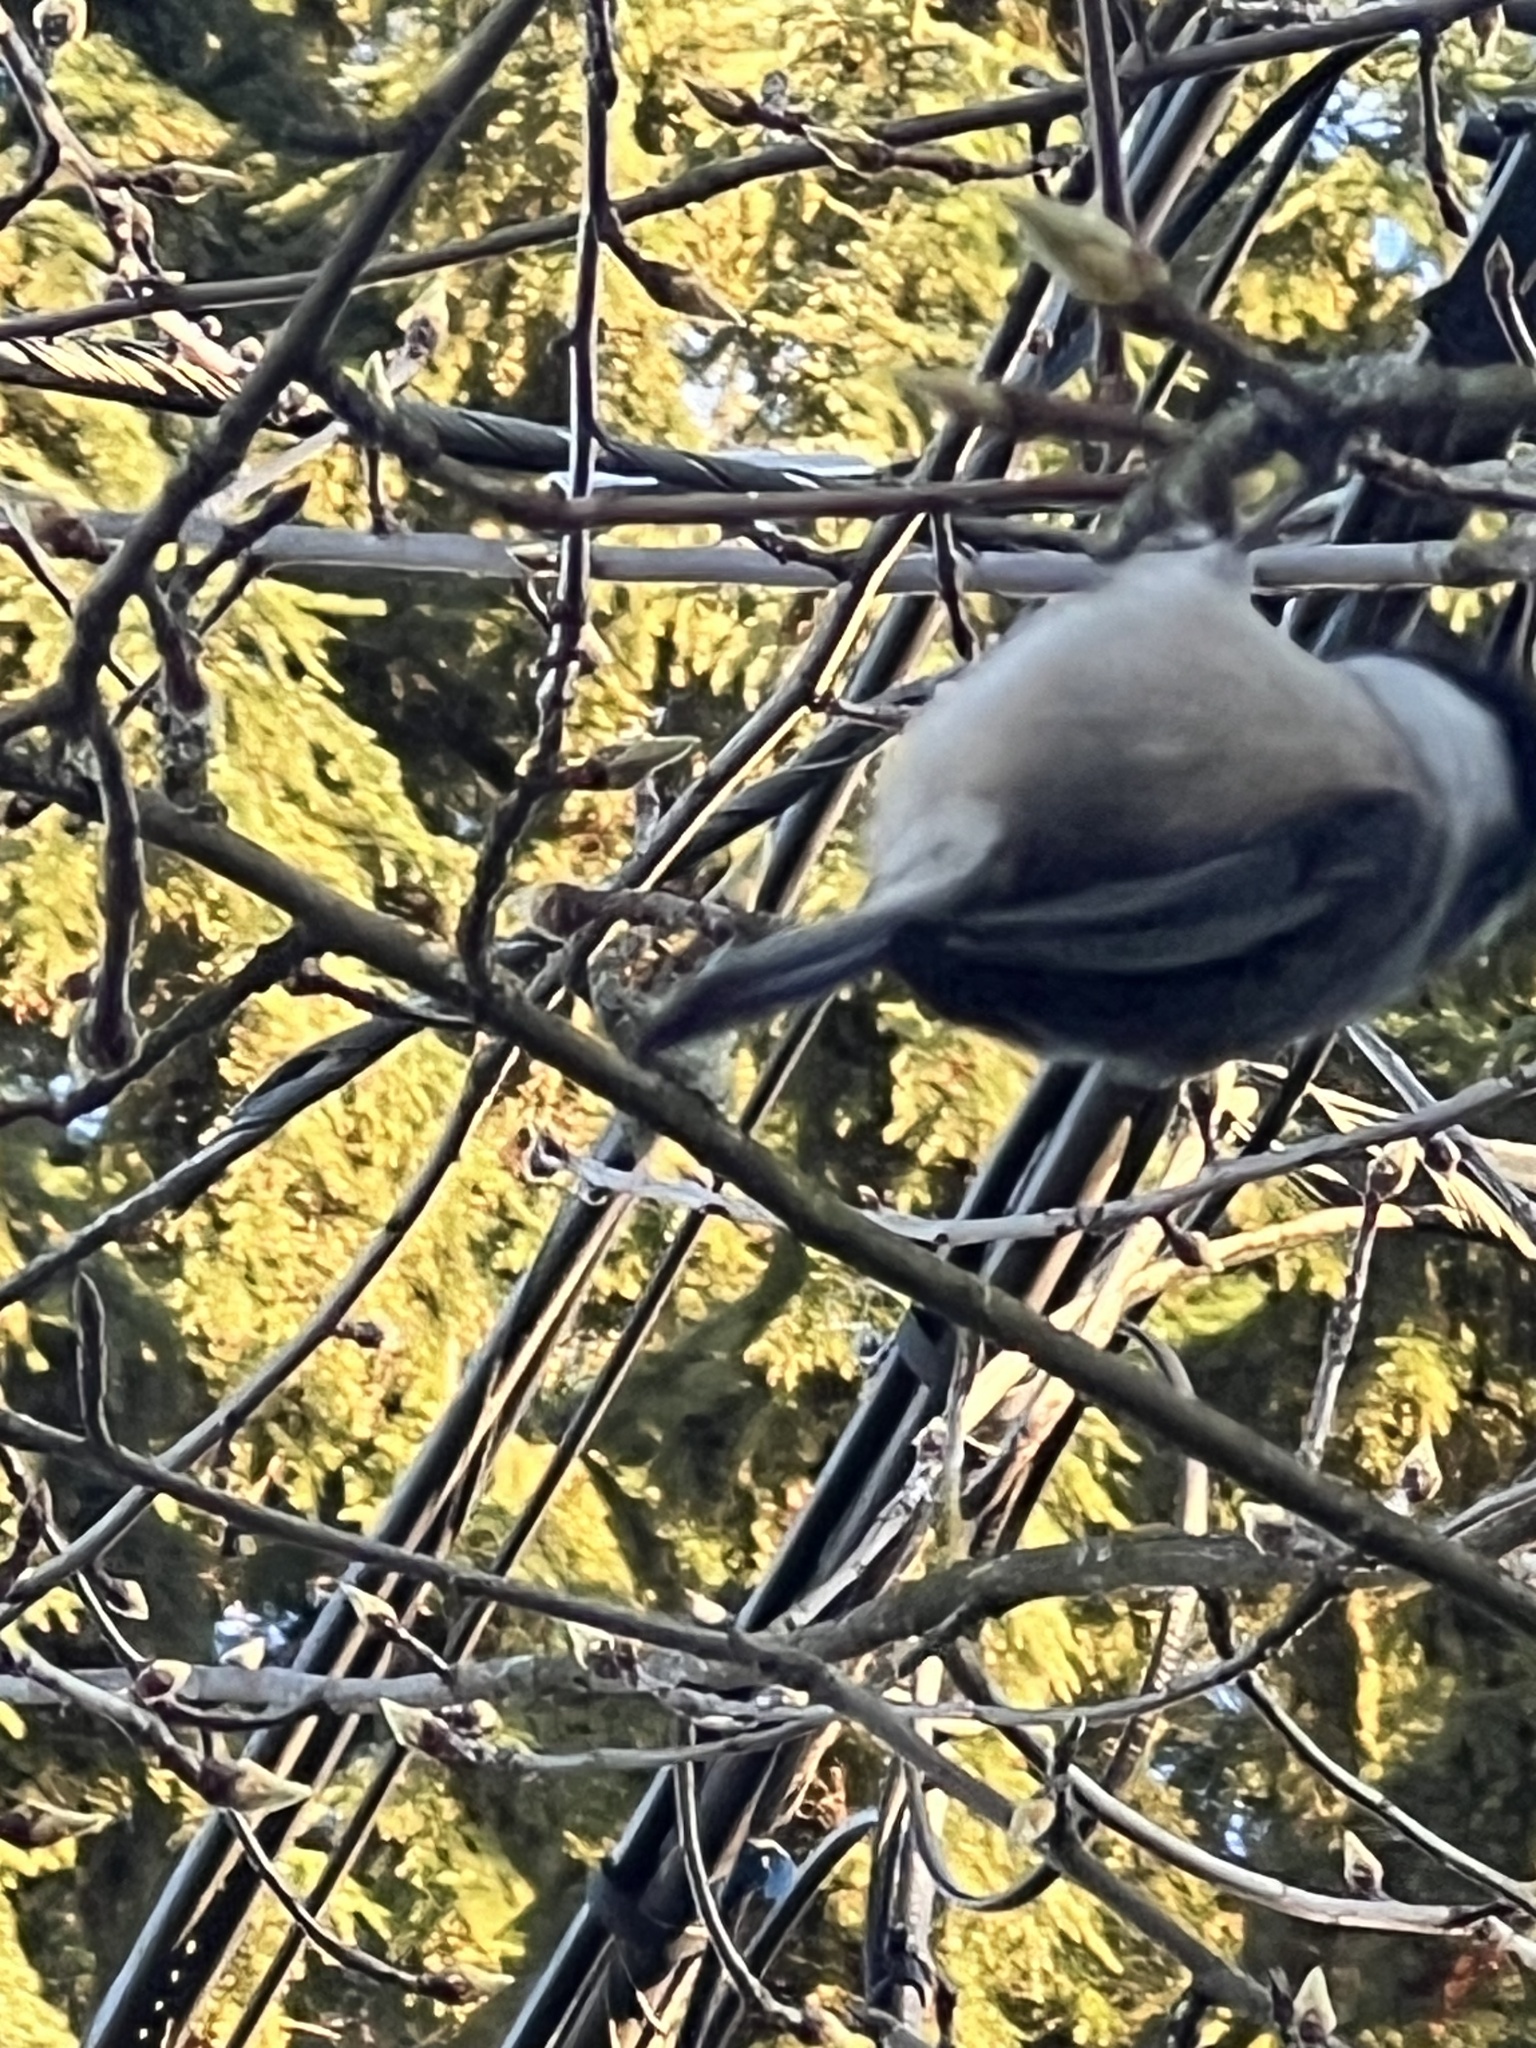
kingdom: Animalia
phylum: Chordata
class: Aves
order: Passeriformes
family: Paridae
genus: Poecile
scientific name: Poecile atricapillus
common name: Black-capped chickadee
